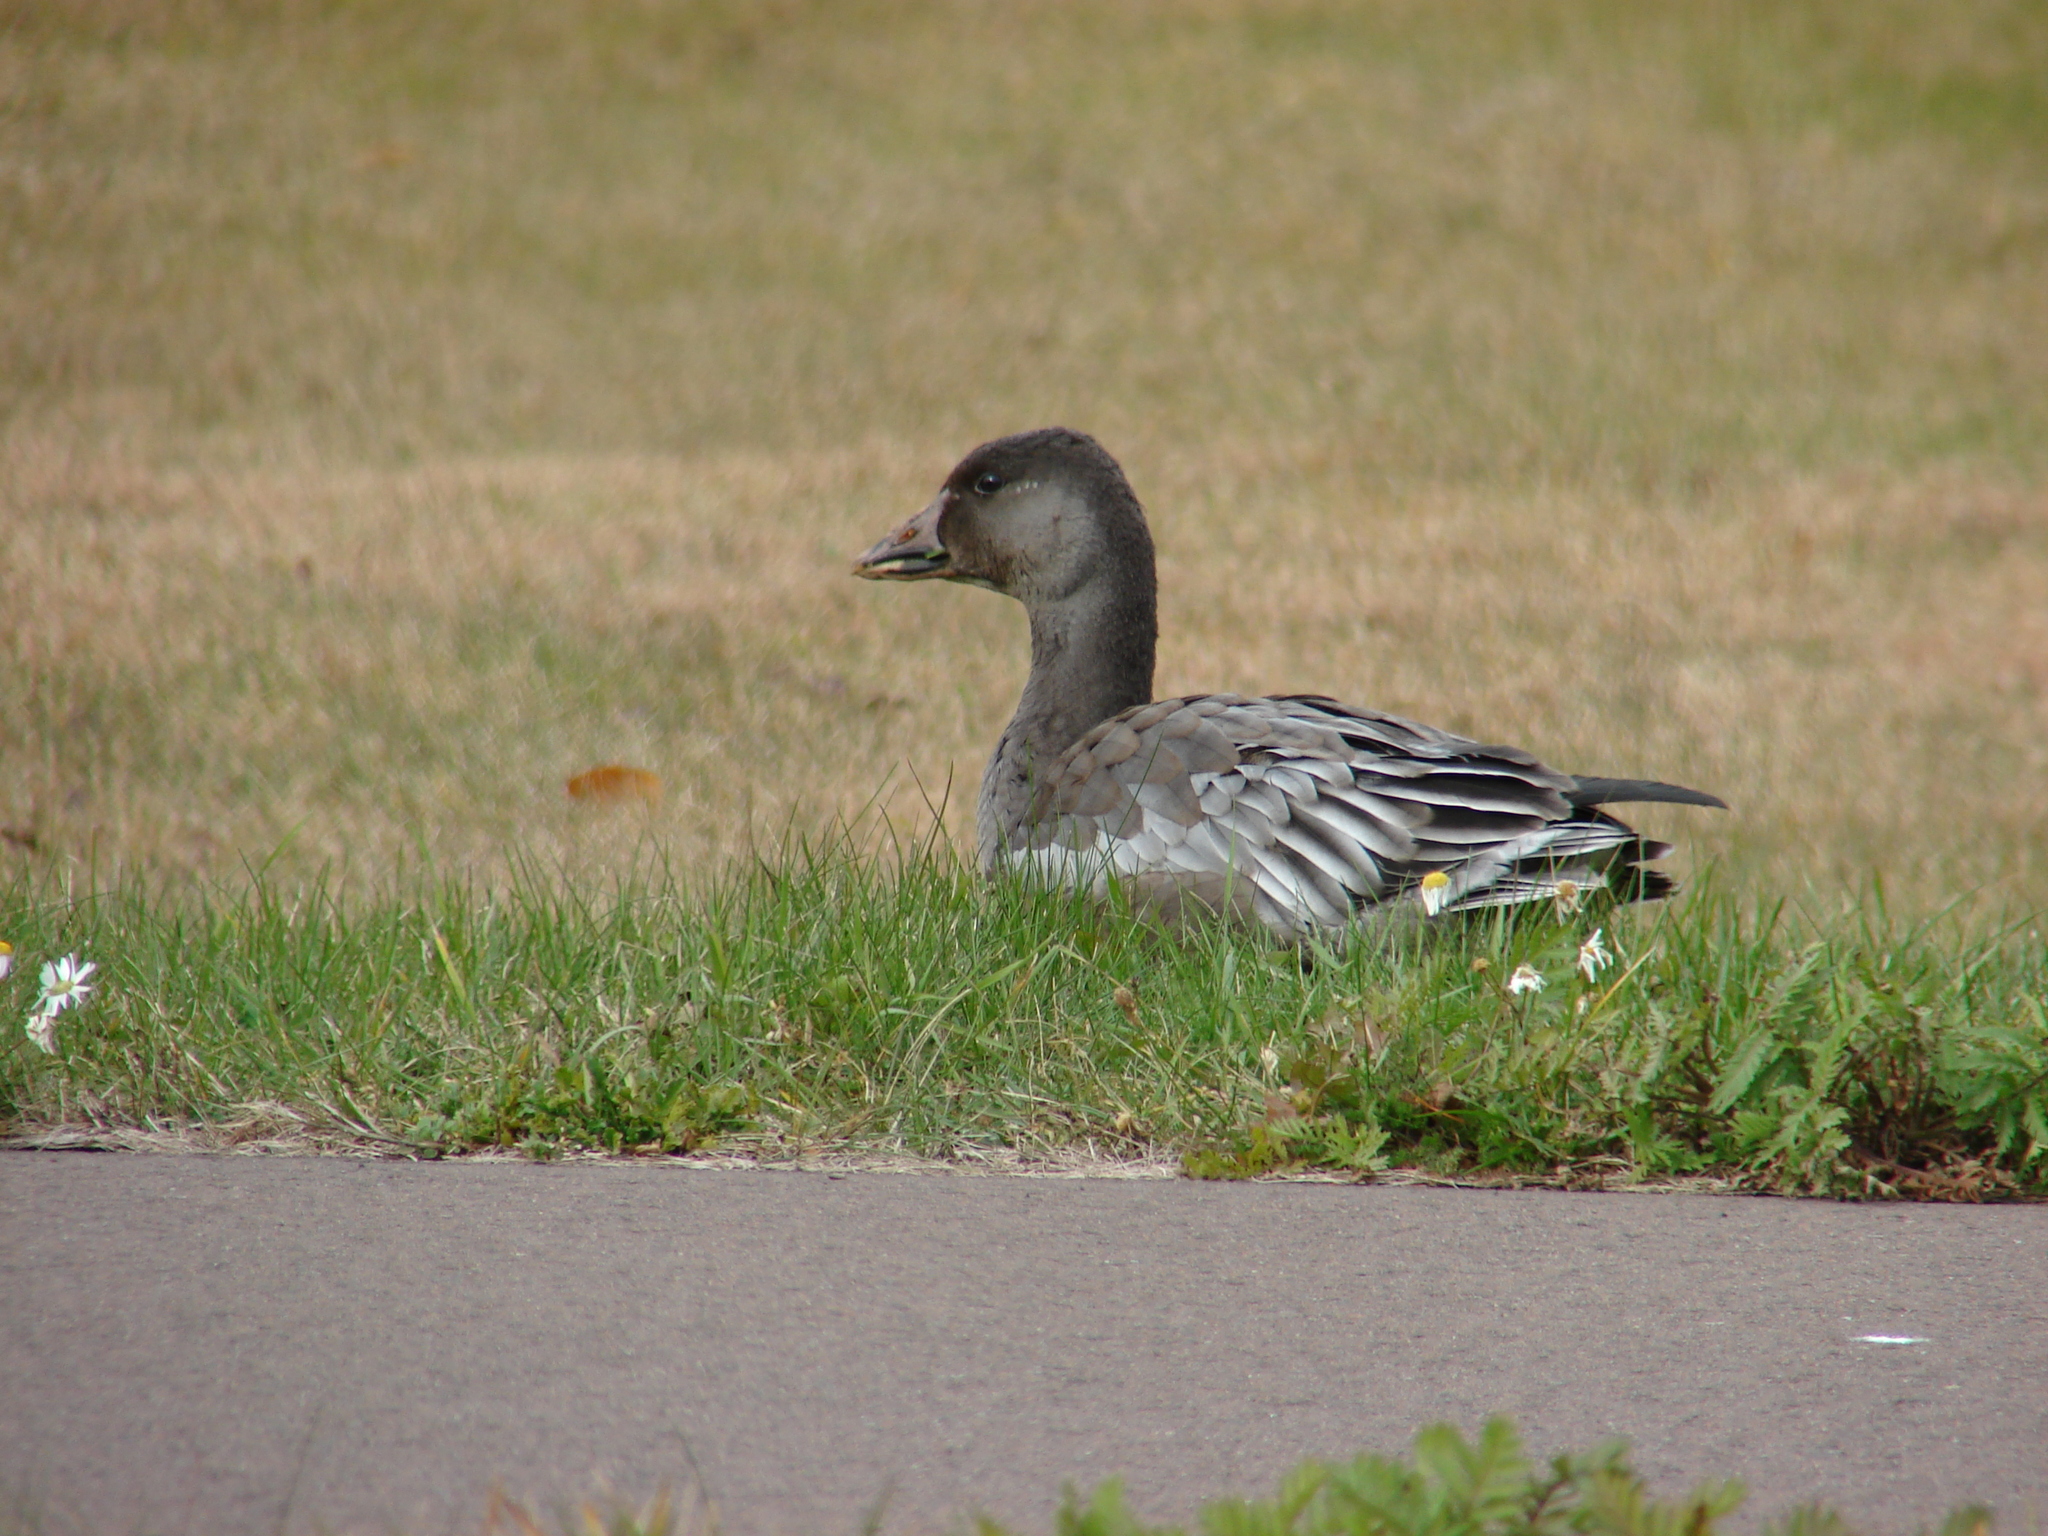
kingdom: Animalia
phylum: Chordata
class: Aves
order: Anseriformes
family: Anatidae
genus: Anser
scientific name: Anser caerulescens
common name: Snow goose
